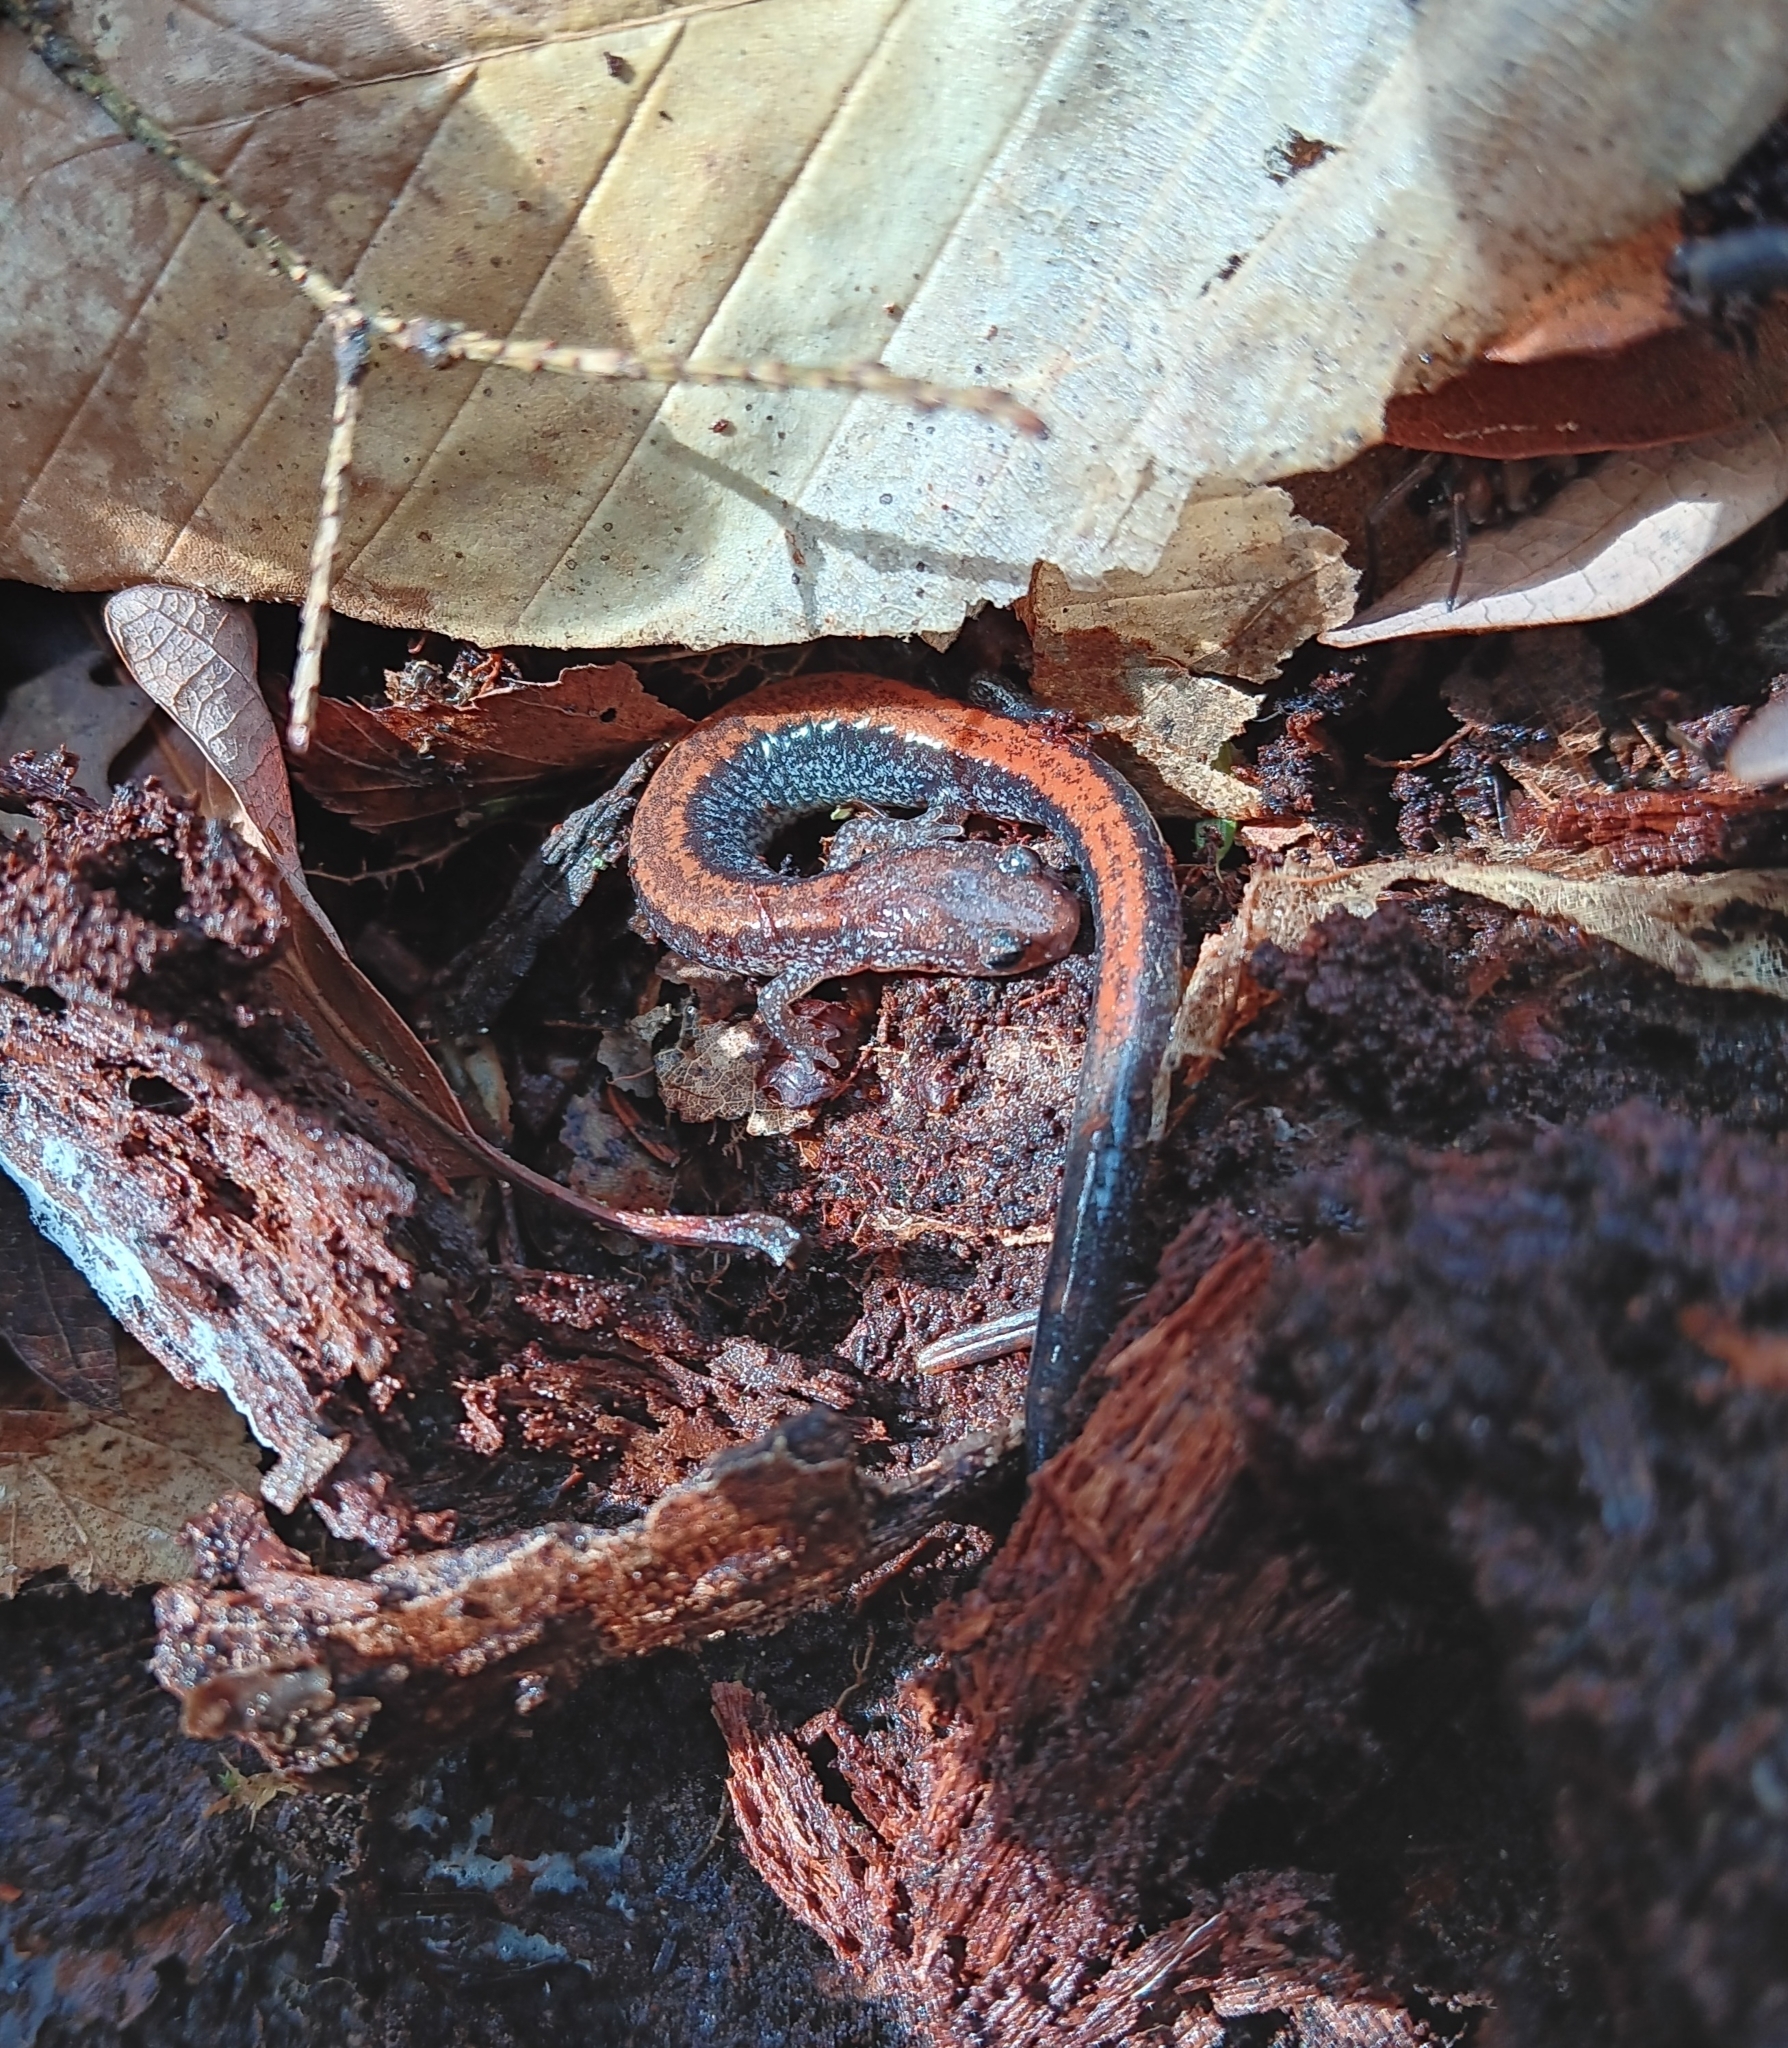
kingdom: Animalia
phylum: Chordata
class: Amphibia
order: Caudata
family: Plethodontidae
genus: Plethodon
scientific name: Plethodon cinereus
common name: Redback salamander
